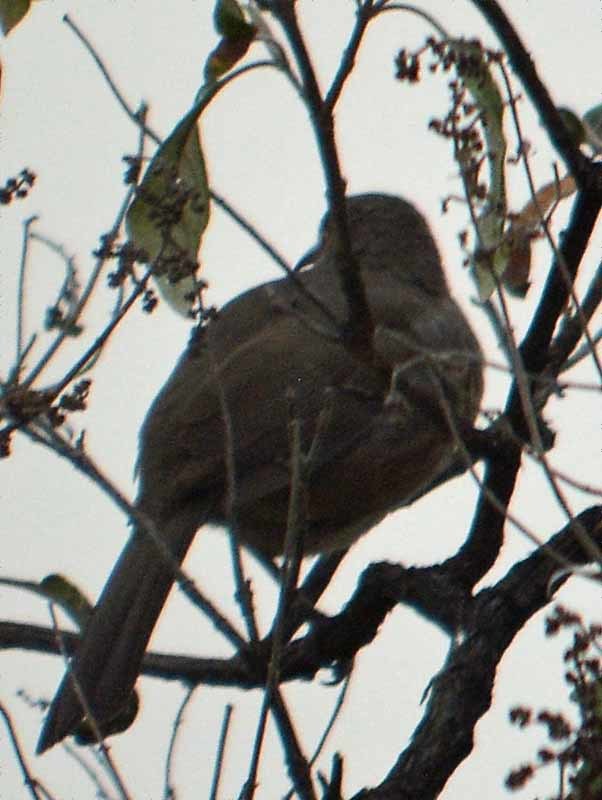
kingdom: Animalia
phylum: Chordata
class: Aves
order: Passeriformes
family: Mimidae
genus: Toxostoma
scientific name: Toxostoma curvirostre
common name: Curve-billed thrasher
